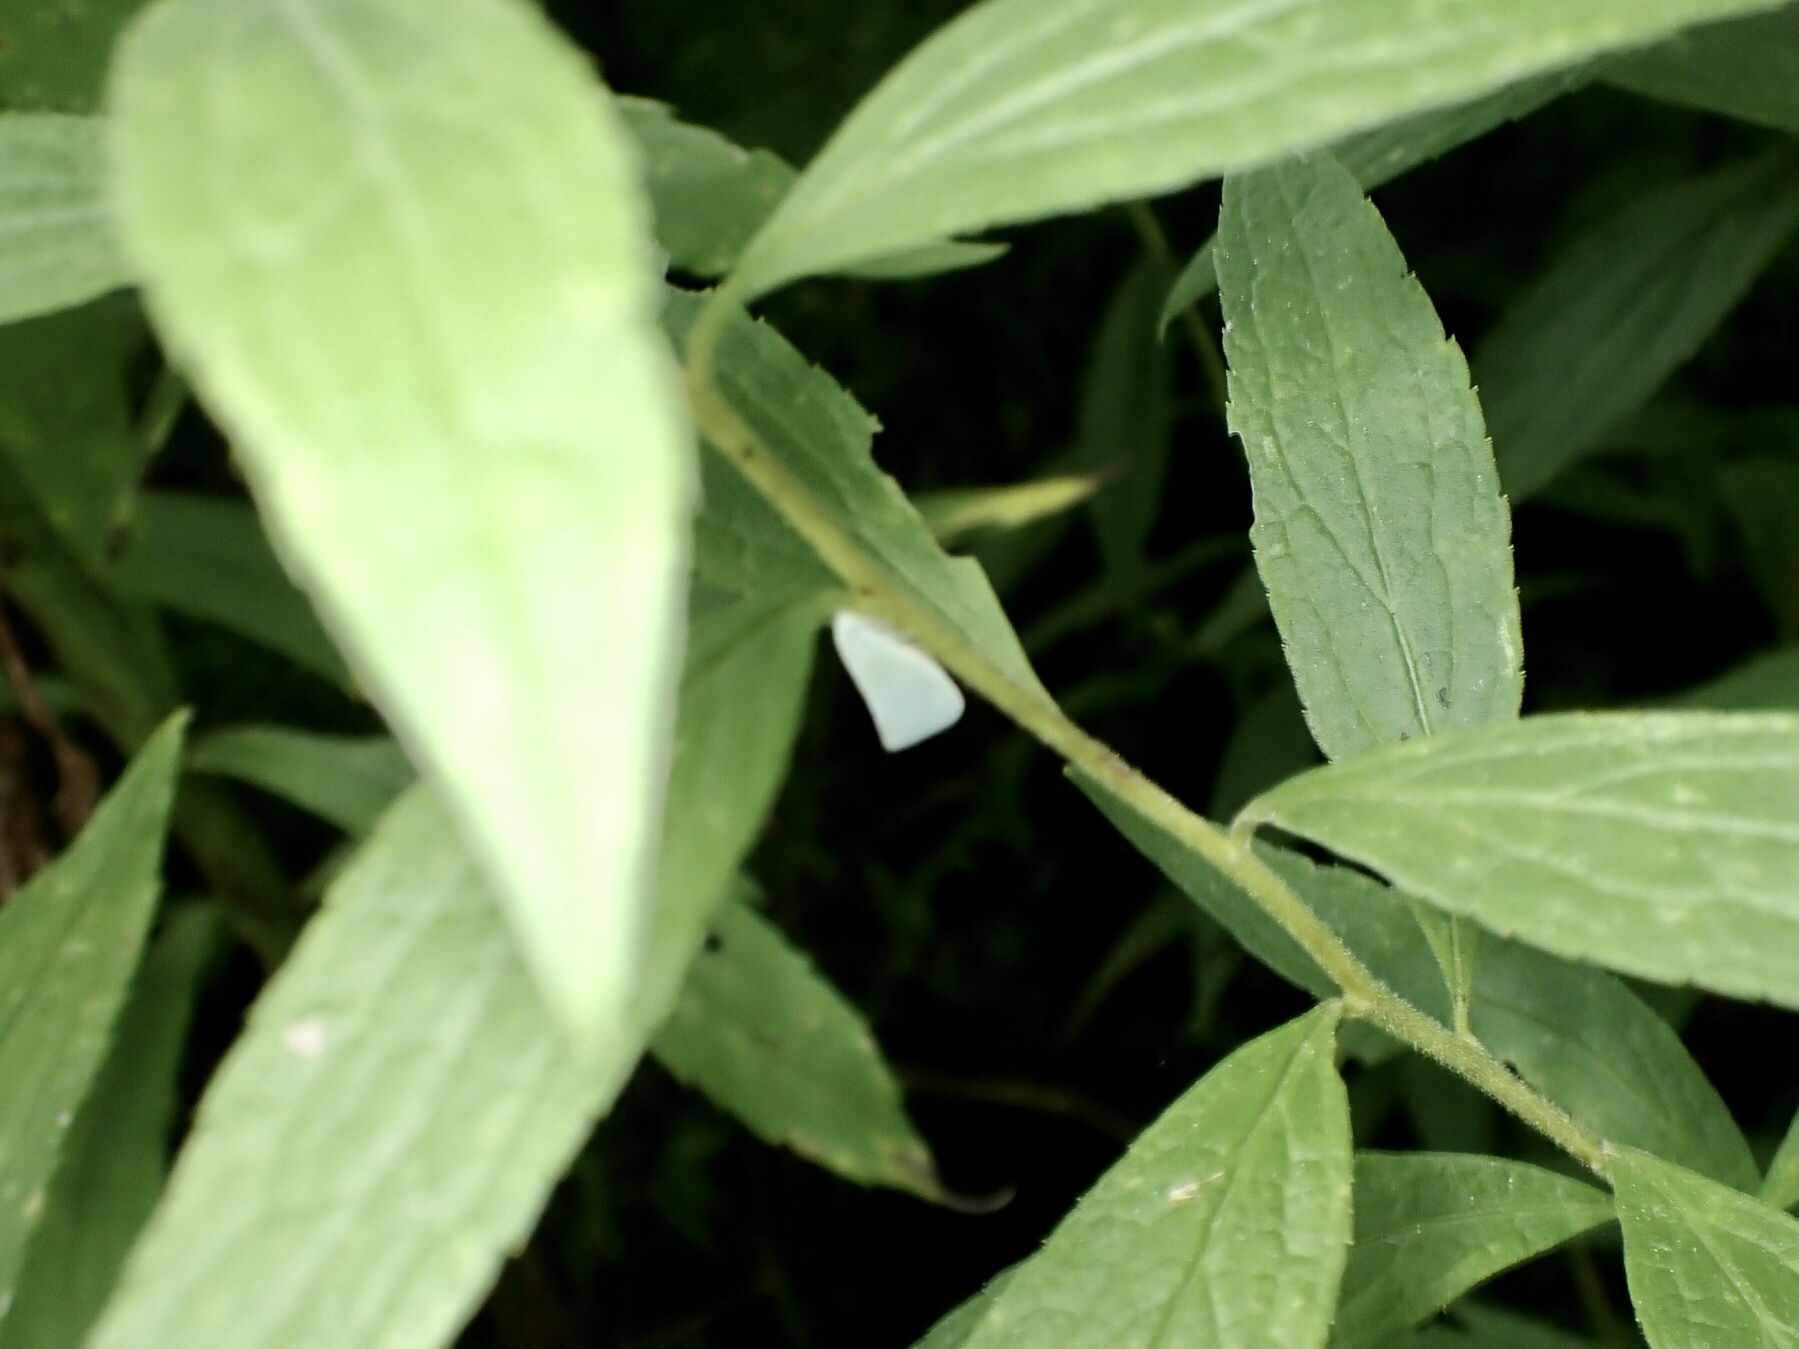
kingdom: Animalia
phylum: Arthropoda
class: Insecta
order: Hemiptera
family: Flatidae
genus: Flatormenis
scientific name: Flatormenis proxima
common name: Northern flatid planthopper
